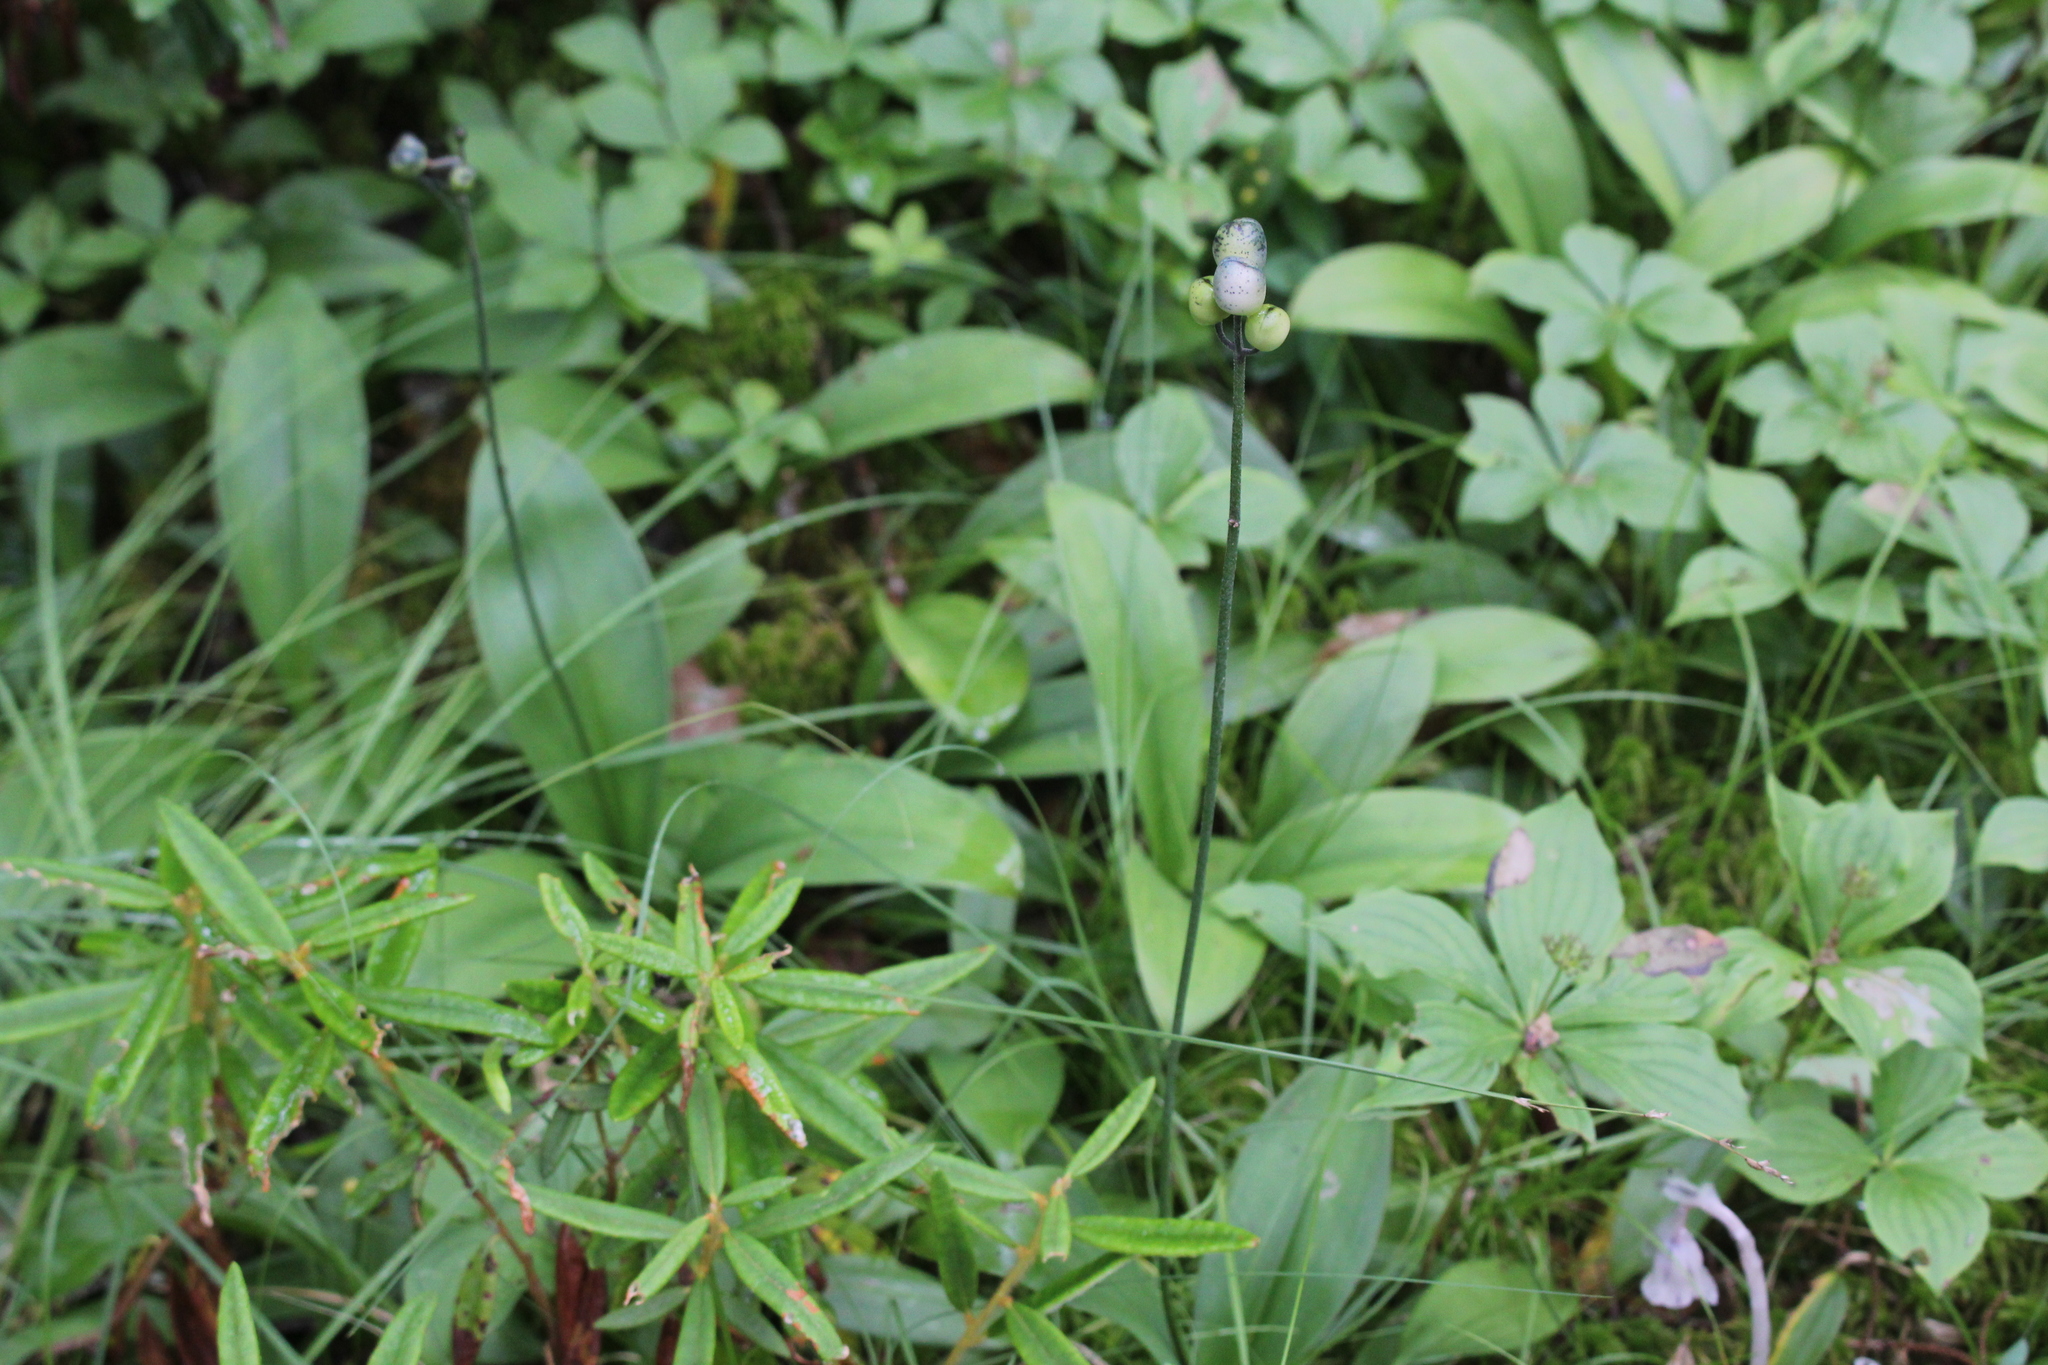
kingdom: Plantae
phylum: Tracheophyta
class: Liliopsida
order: Liliales
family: Liliaceae
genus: Clintonia
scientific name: Clintonia borealis
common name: Yellow clintonia
